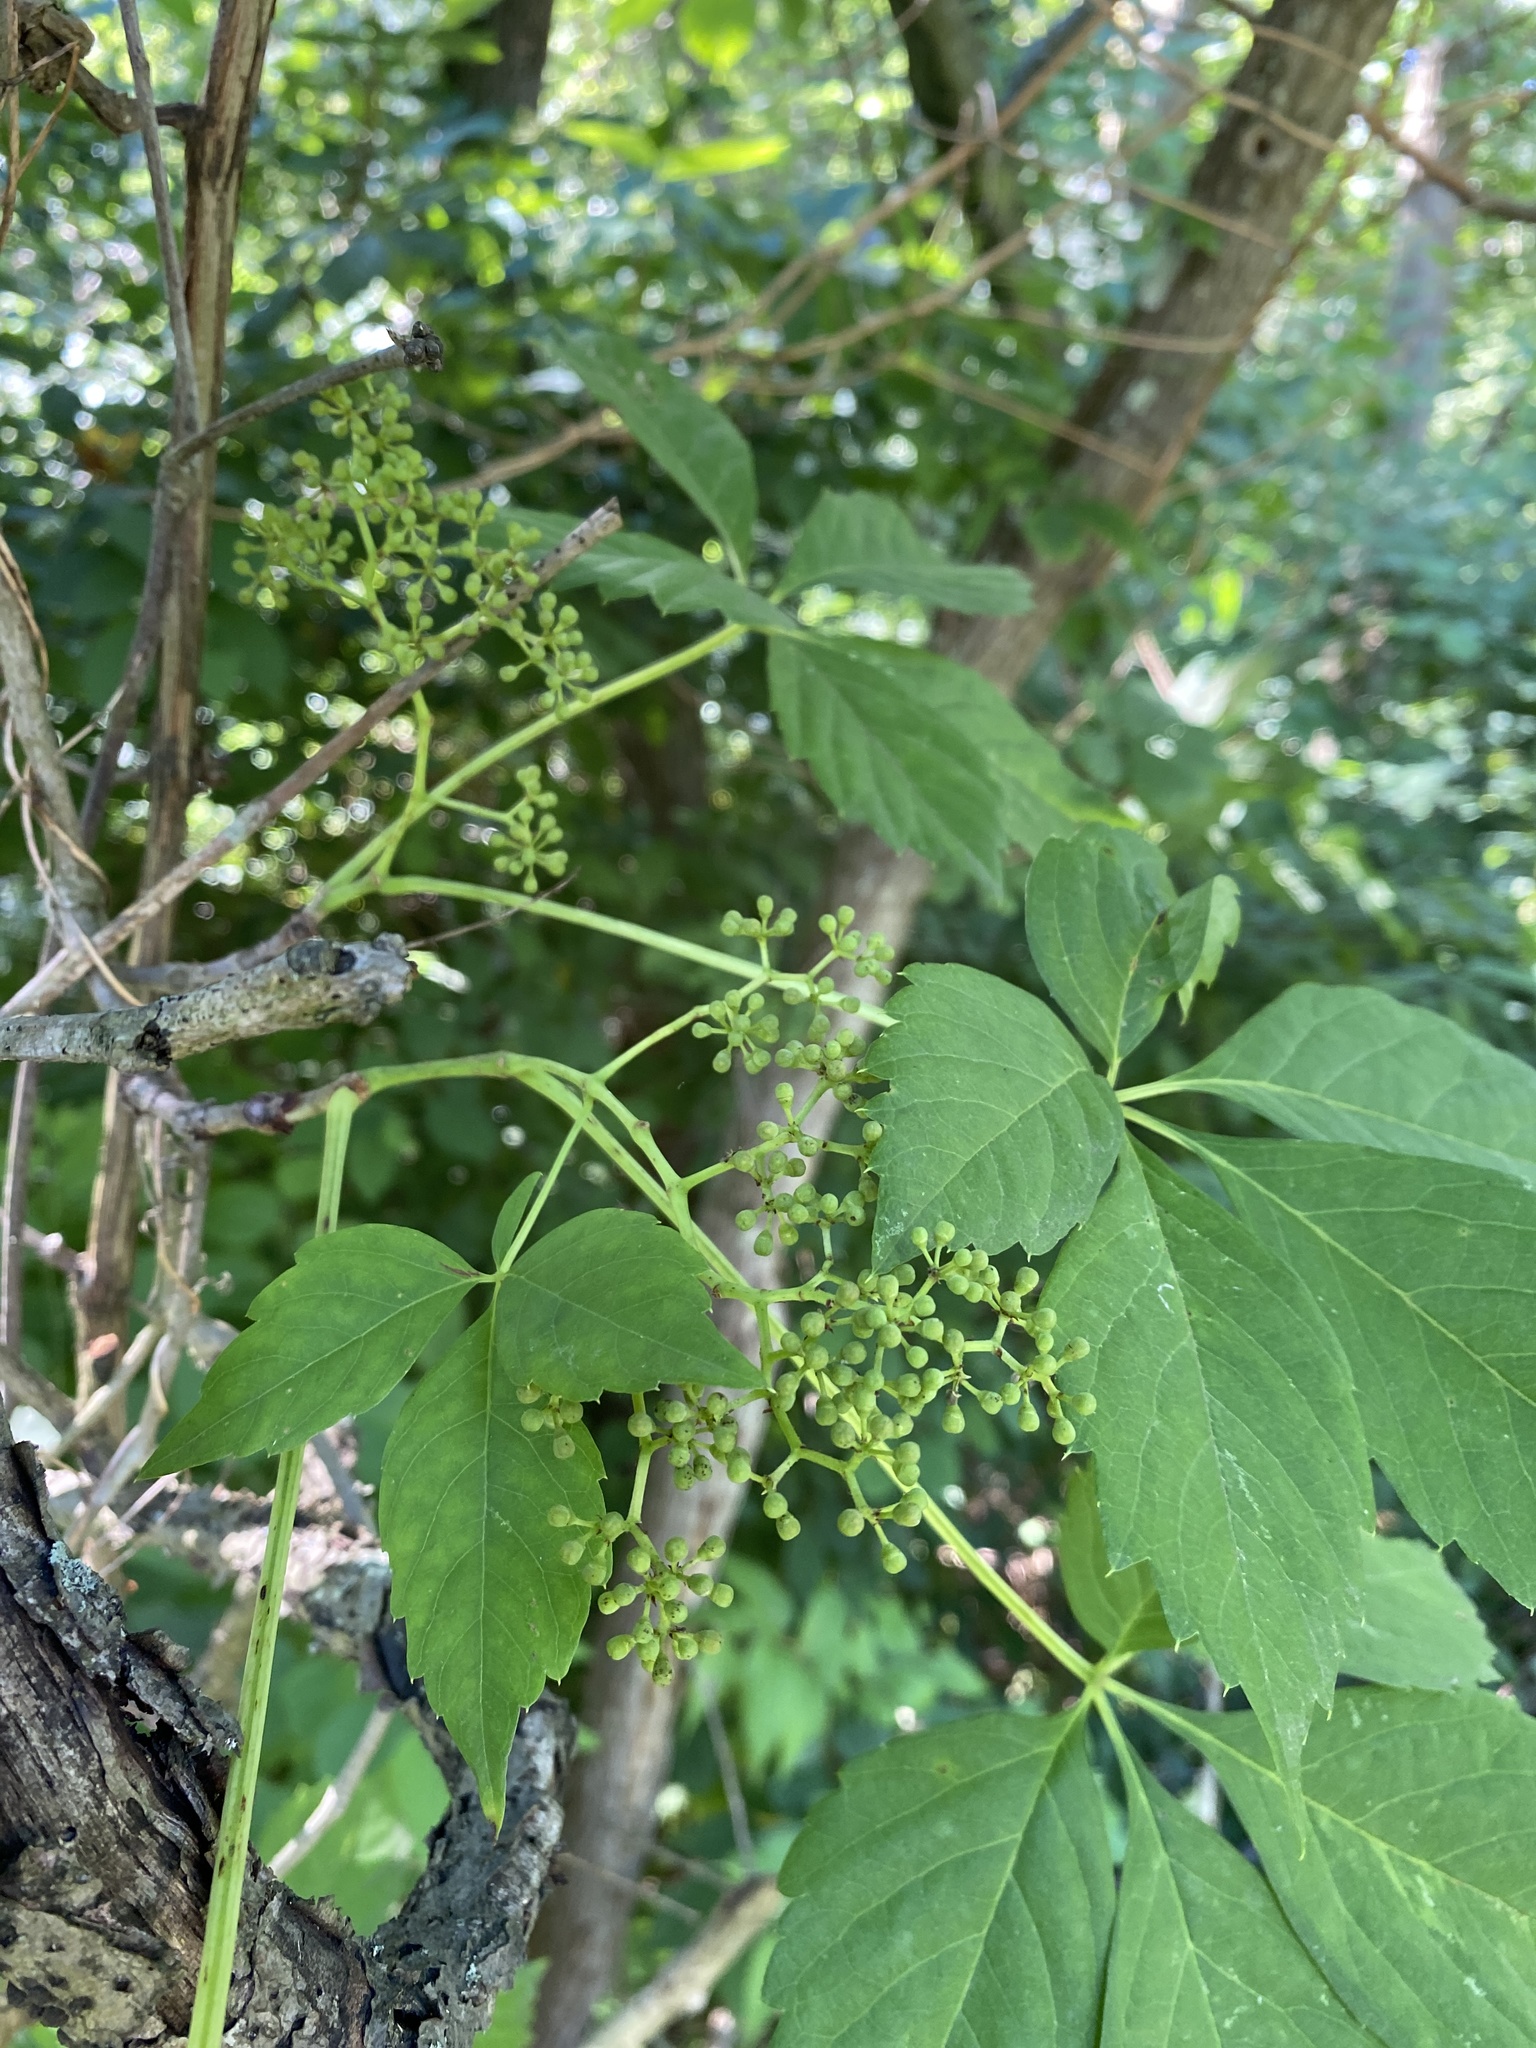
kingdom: Plantae
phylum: Tracheophyta
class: Magnoliopsida
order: Vitales
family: Vitaceae
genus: Parthenocissus
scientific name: Parthenocissus quinquefolia
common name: Virginia-creeper
